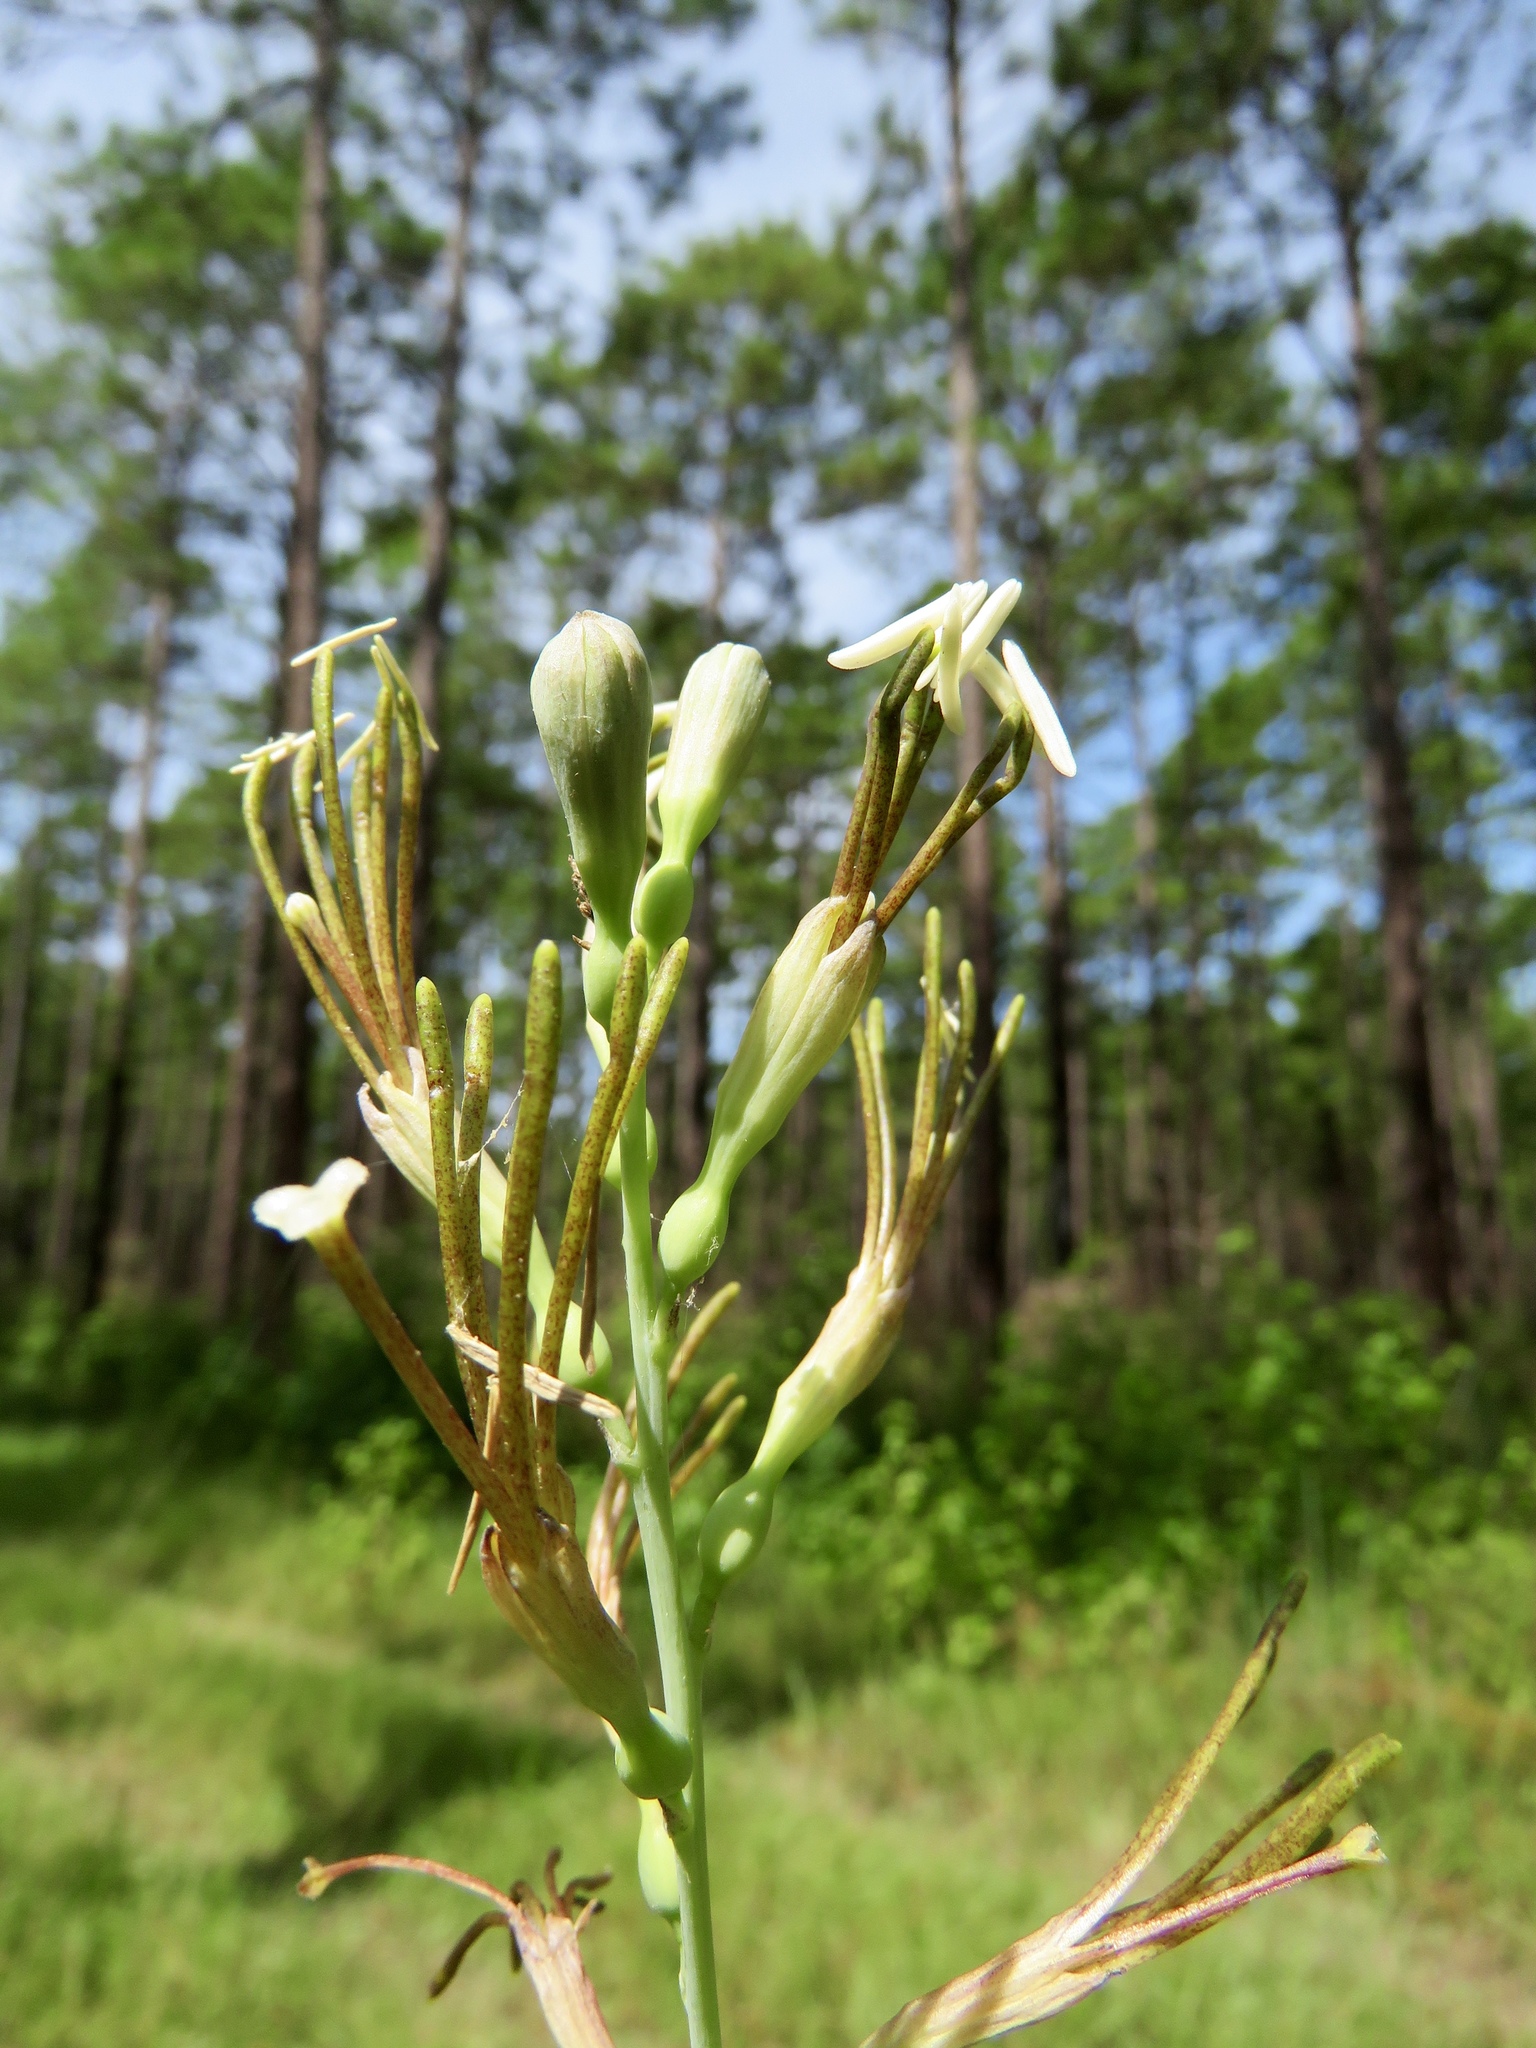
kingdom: Plantae
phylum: Tracheophyta
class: Liliopsida
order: Asparagales
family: Asparagaceae
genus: Agave
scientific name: Agave virginica
